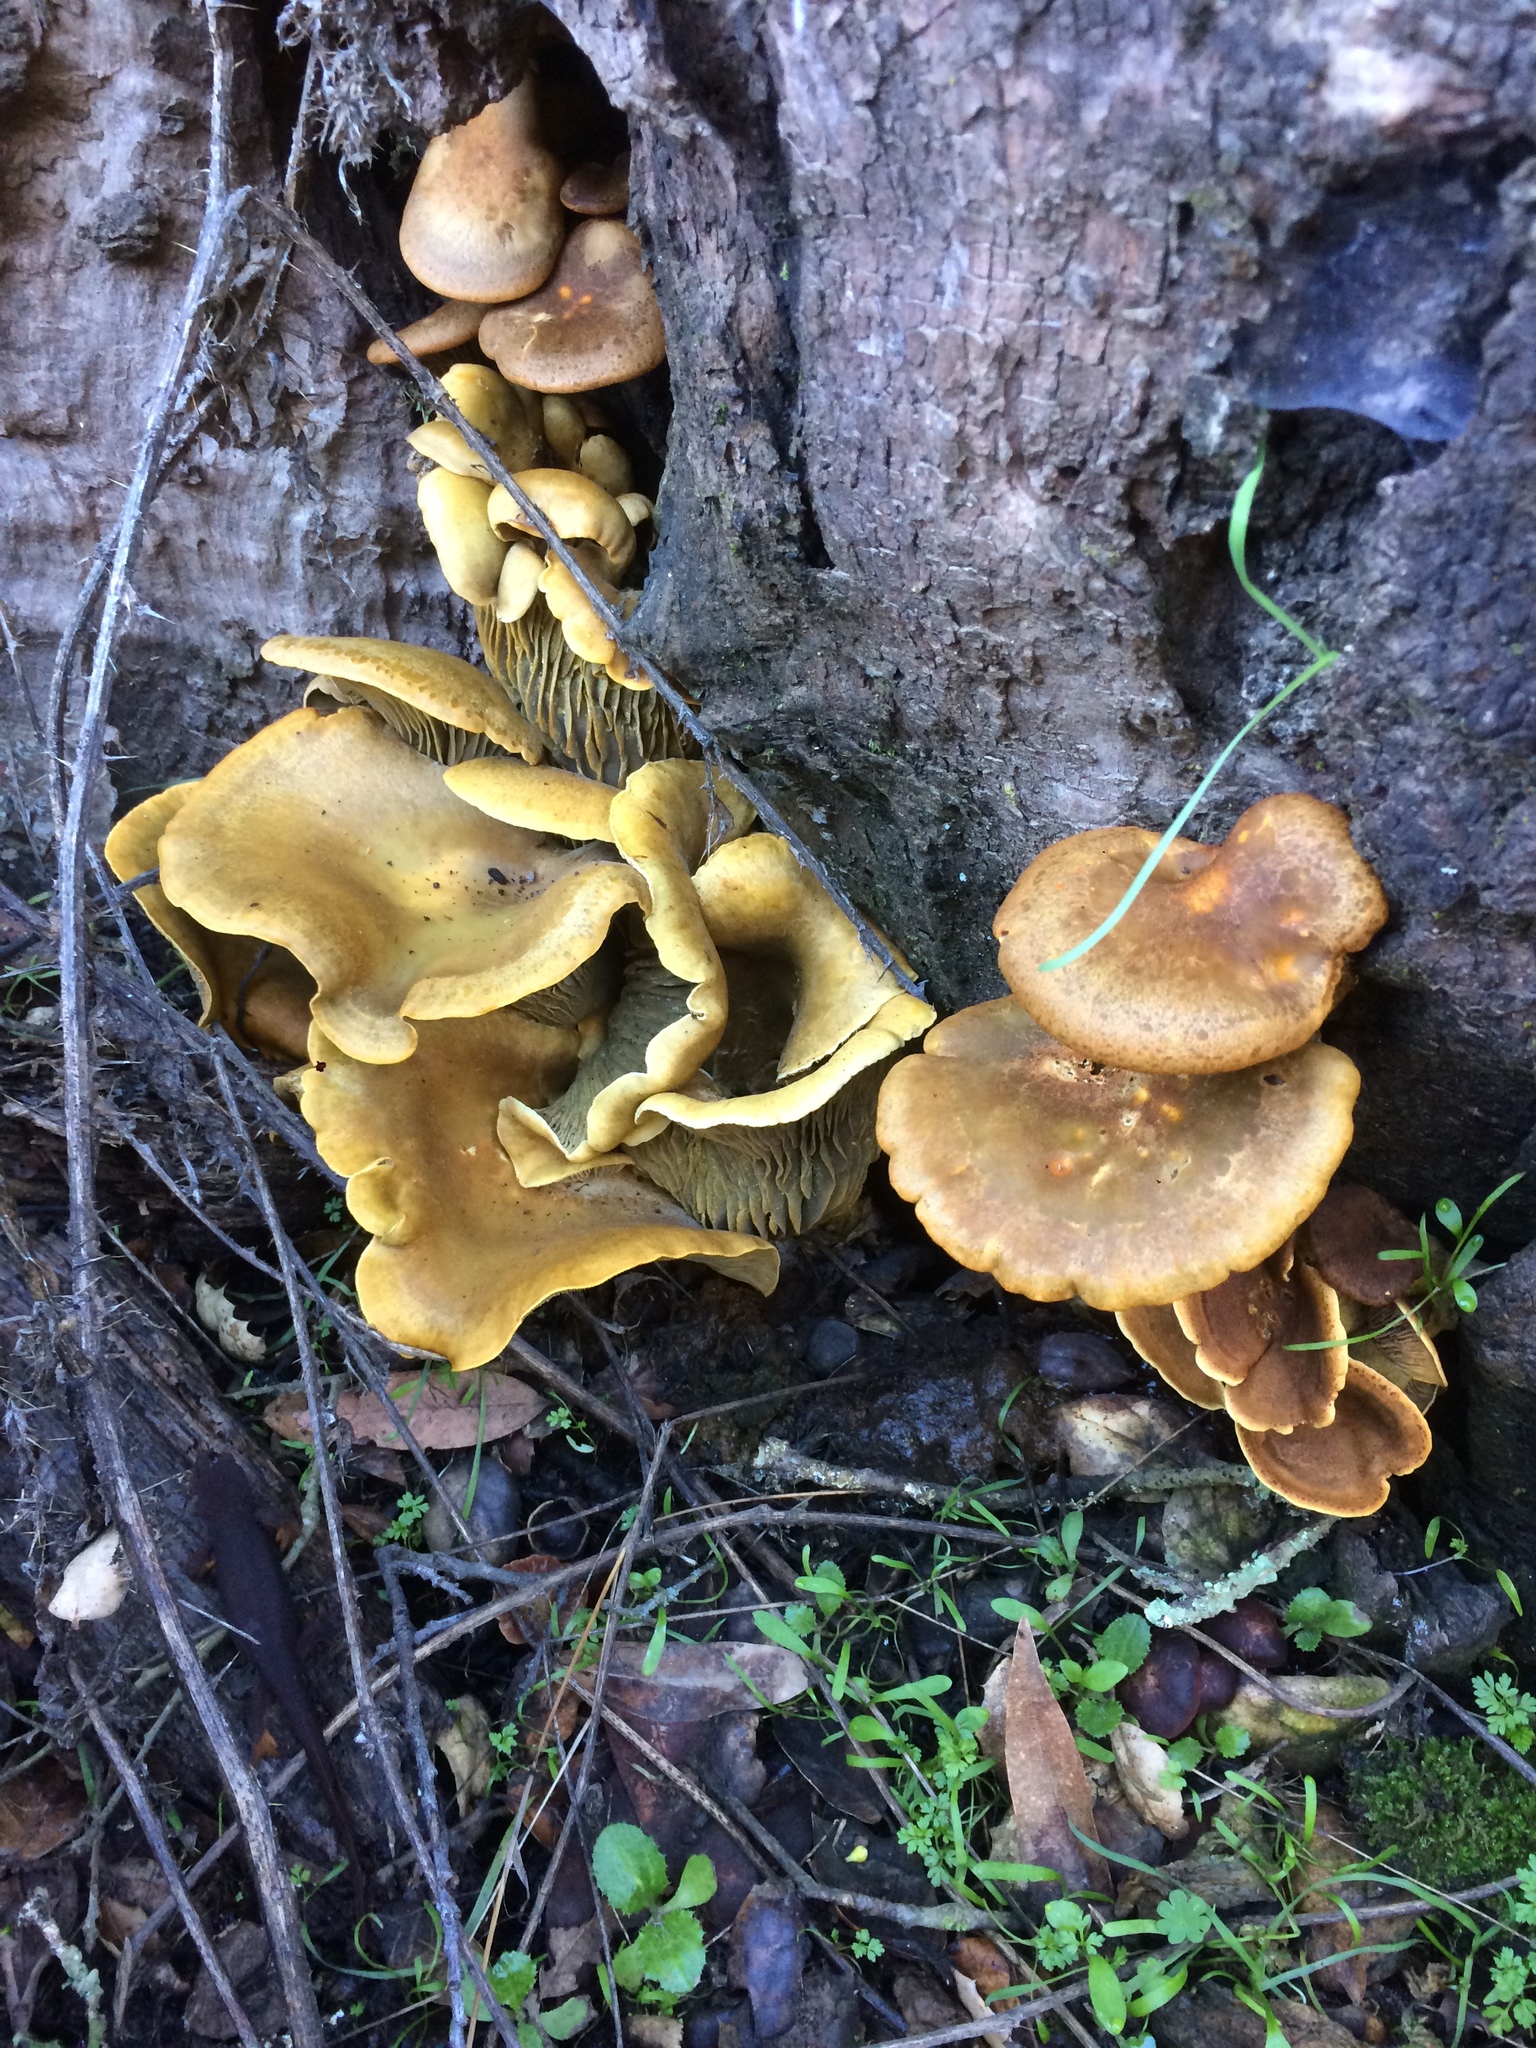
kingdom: Fungi
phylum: Basidiomycota
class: Agaricomycetes
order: Agaricales
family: Omphalotaceae
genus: Omphalotus
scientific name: Omphalotus olivascens
